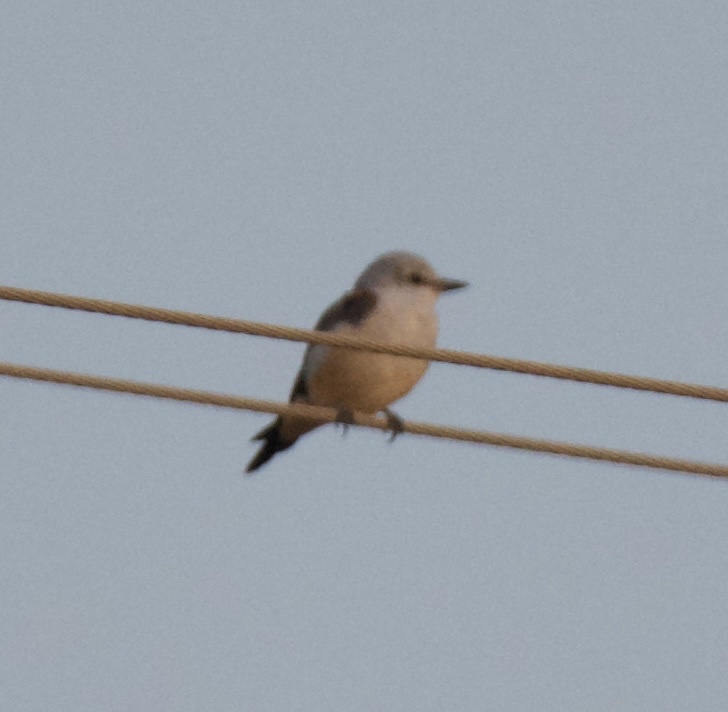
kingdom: Animalia
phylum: Chordata
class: Aves
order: Passeriformes
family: Tyrannidae
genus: Tyrannus
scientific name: Tyrannus forficatus
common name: Scissor-tailed flycatcher
